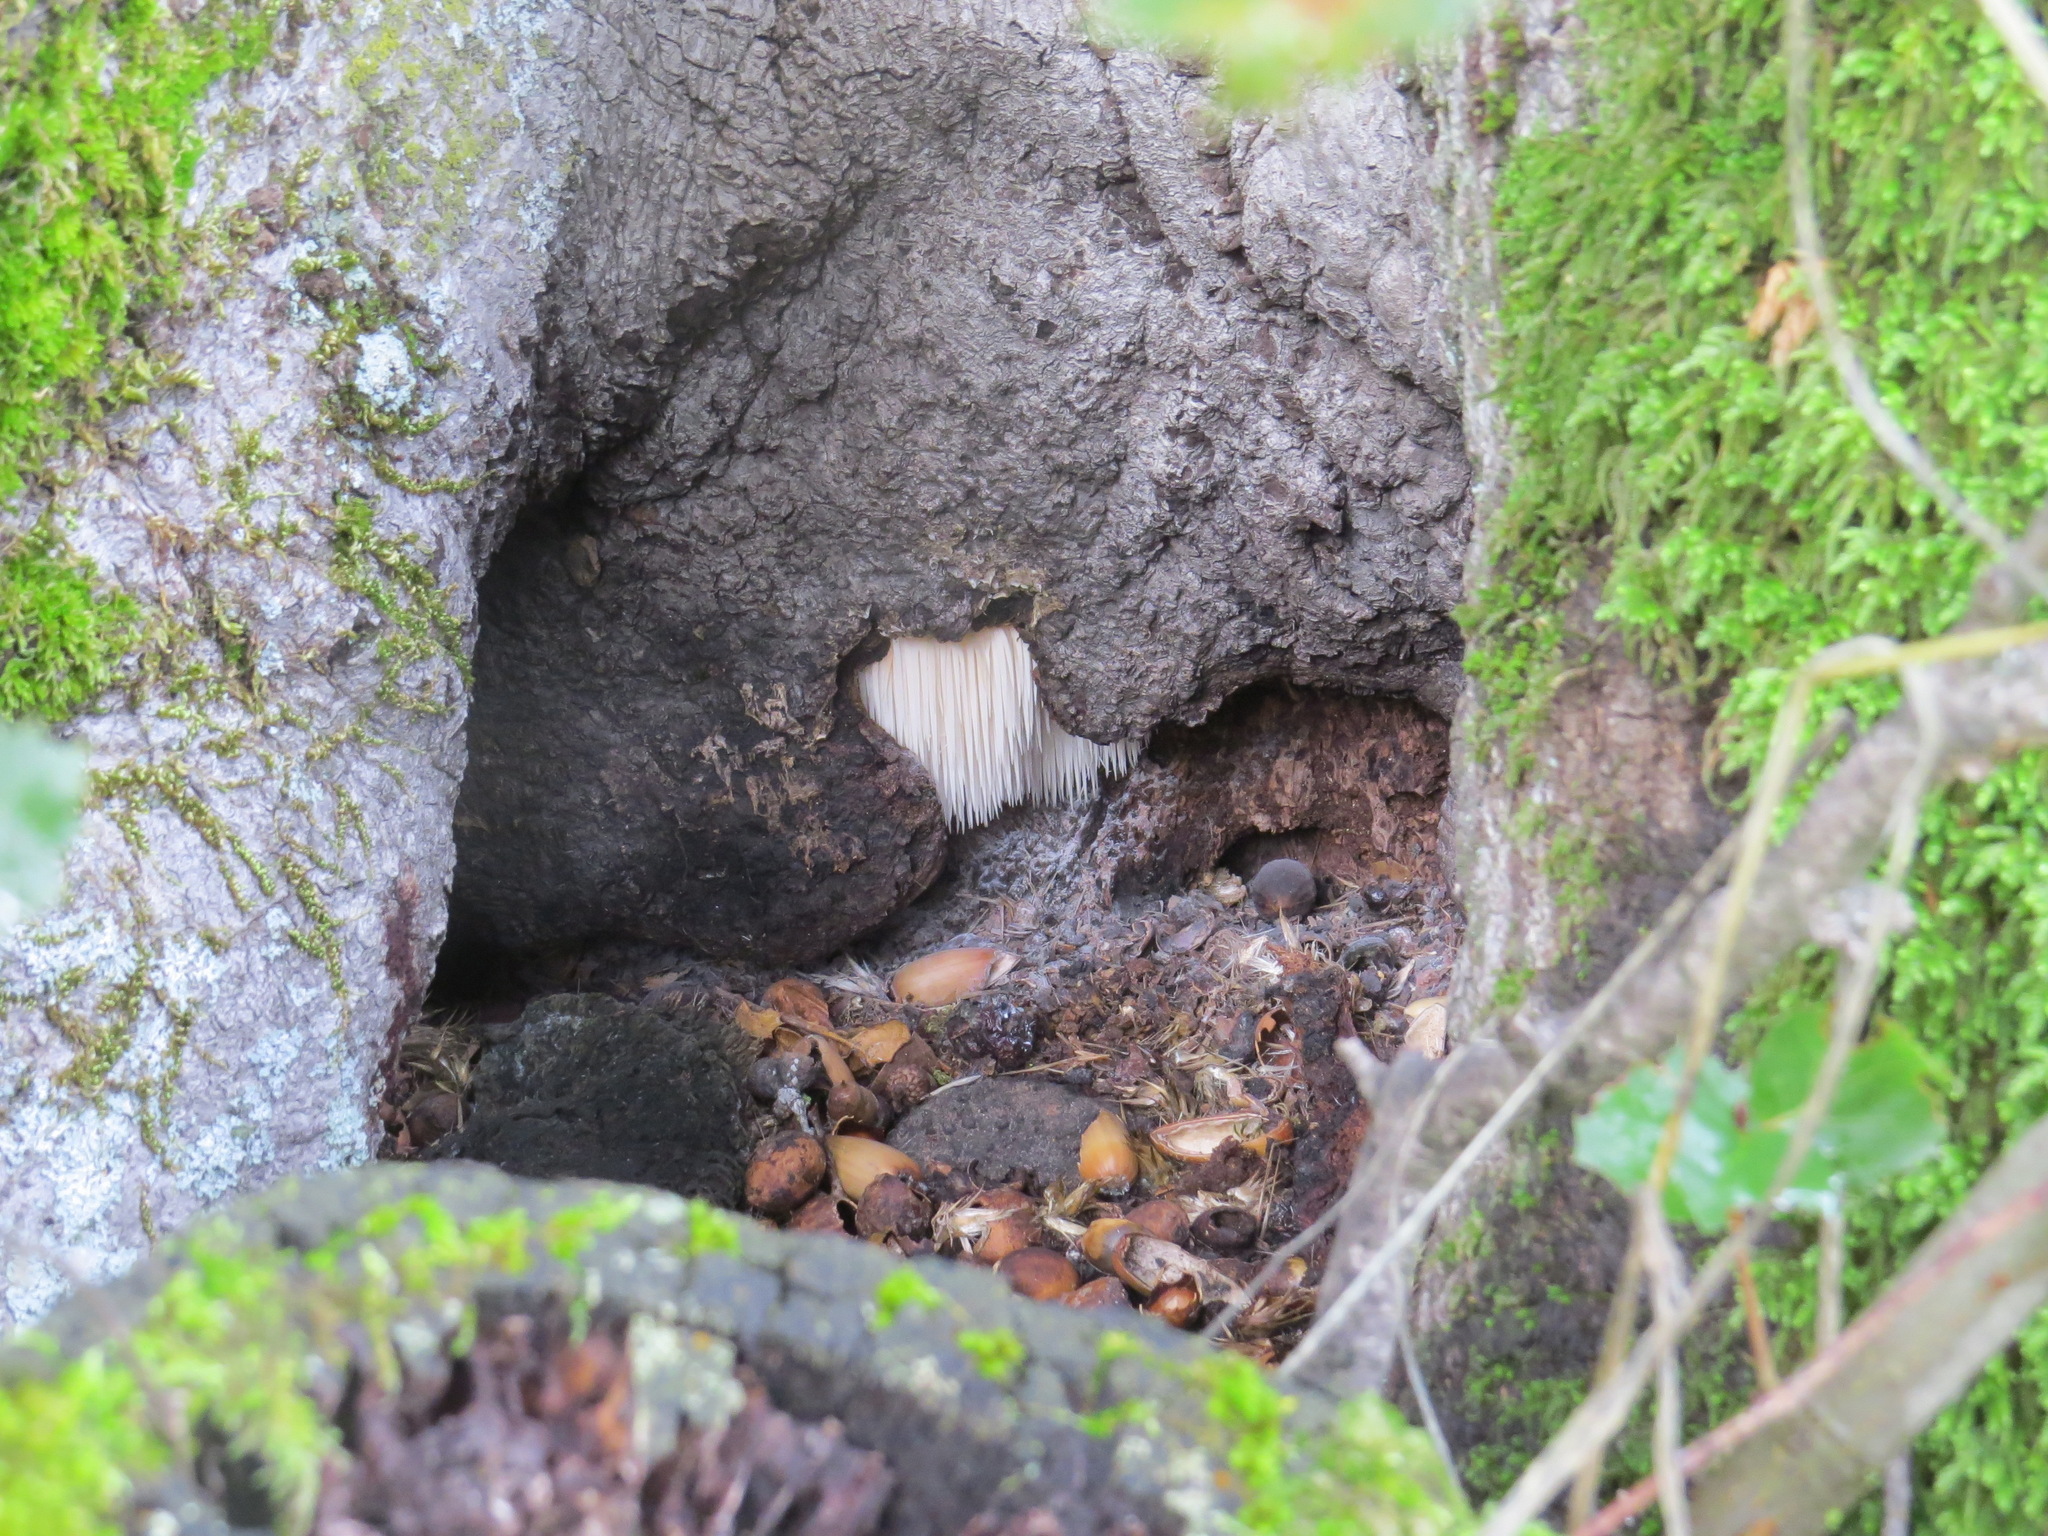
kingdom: Fungi
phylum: Basidiomycota
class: Agaricomycetes
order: Russulales
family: Hericiaceae
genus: Hericium
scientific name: Hericium erinaceus
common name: Bearded tooth
